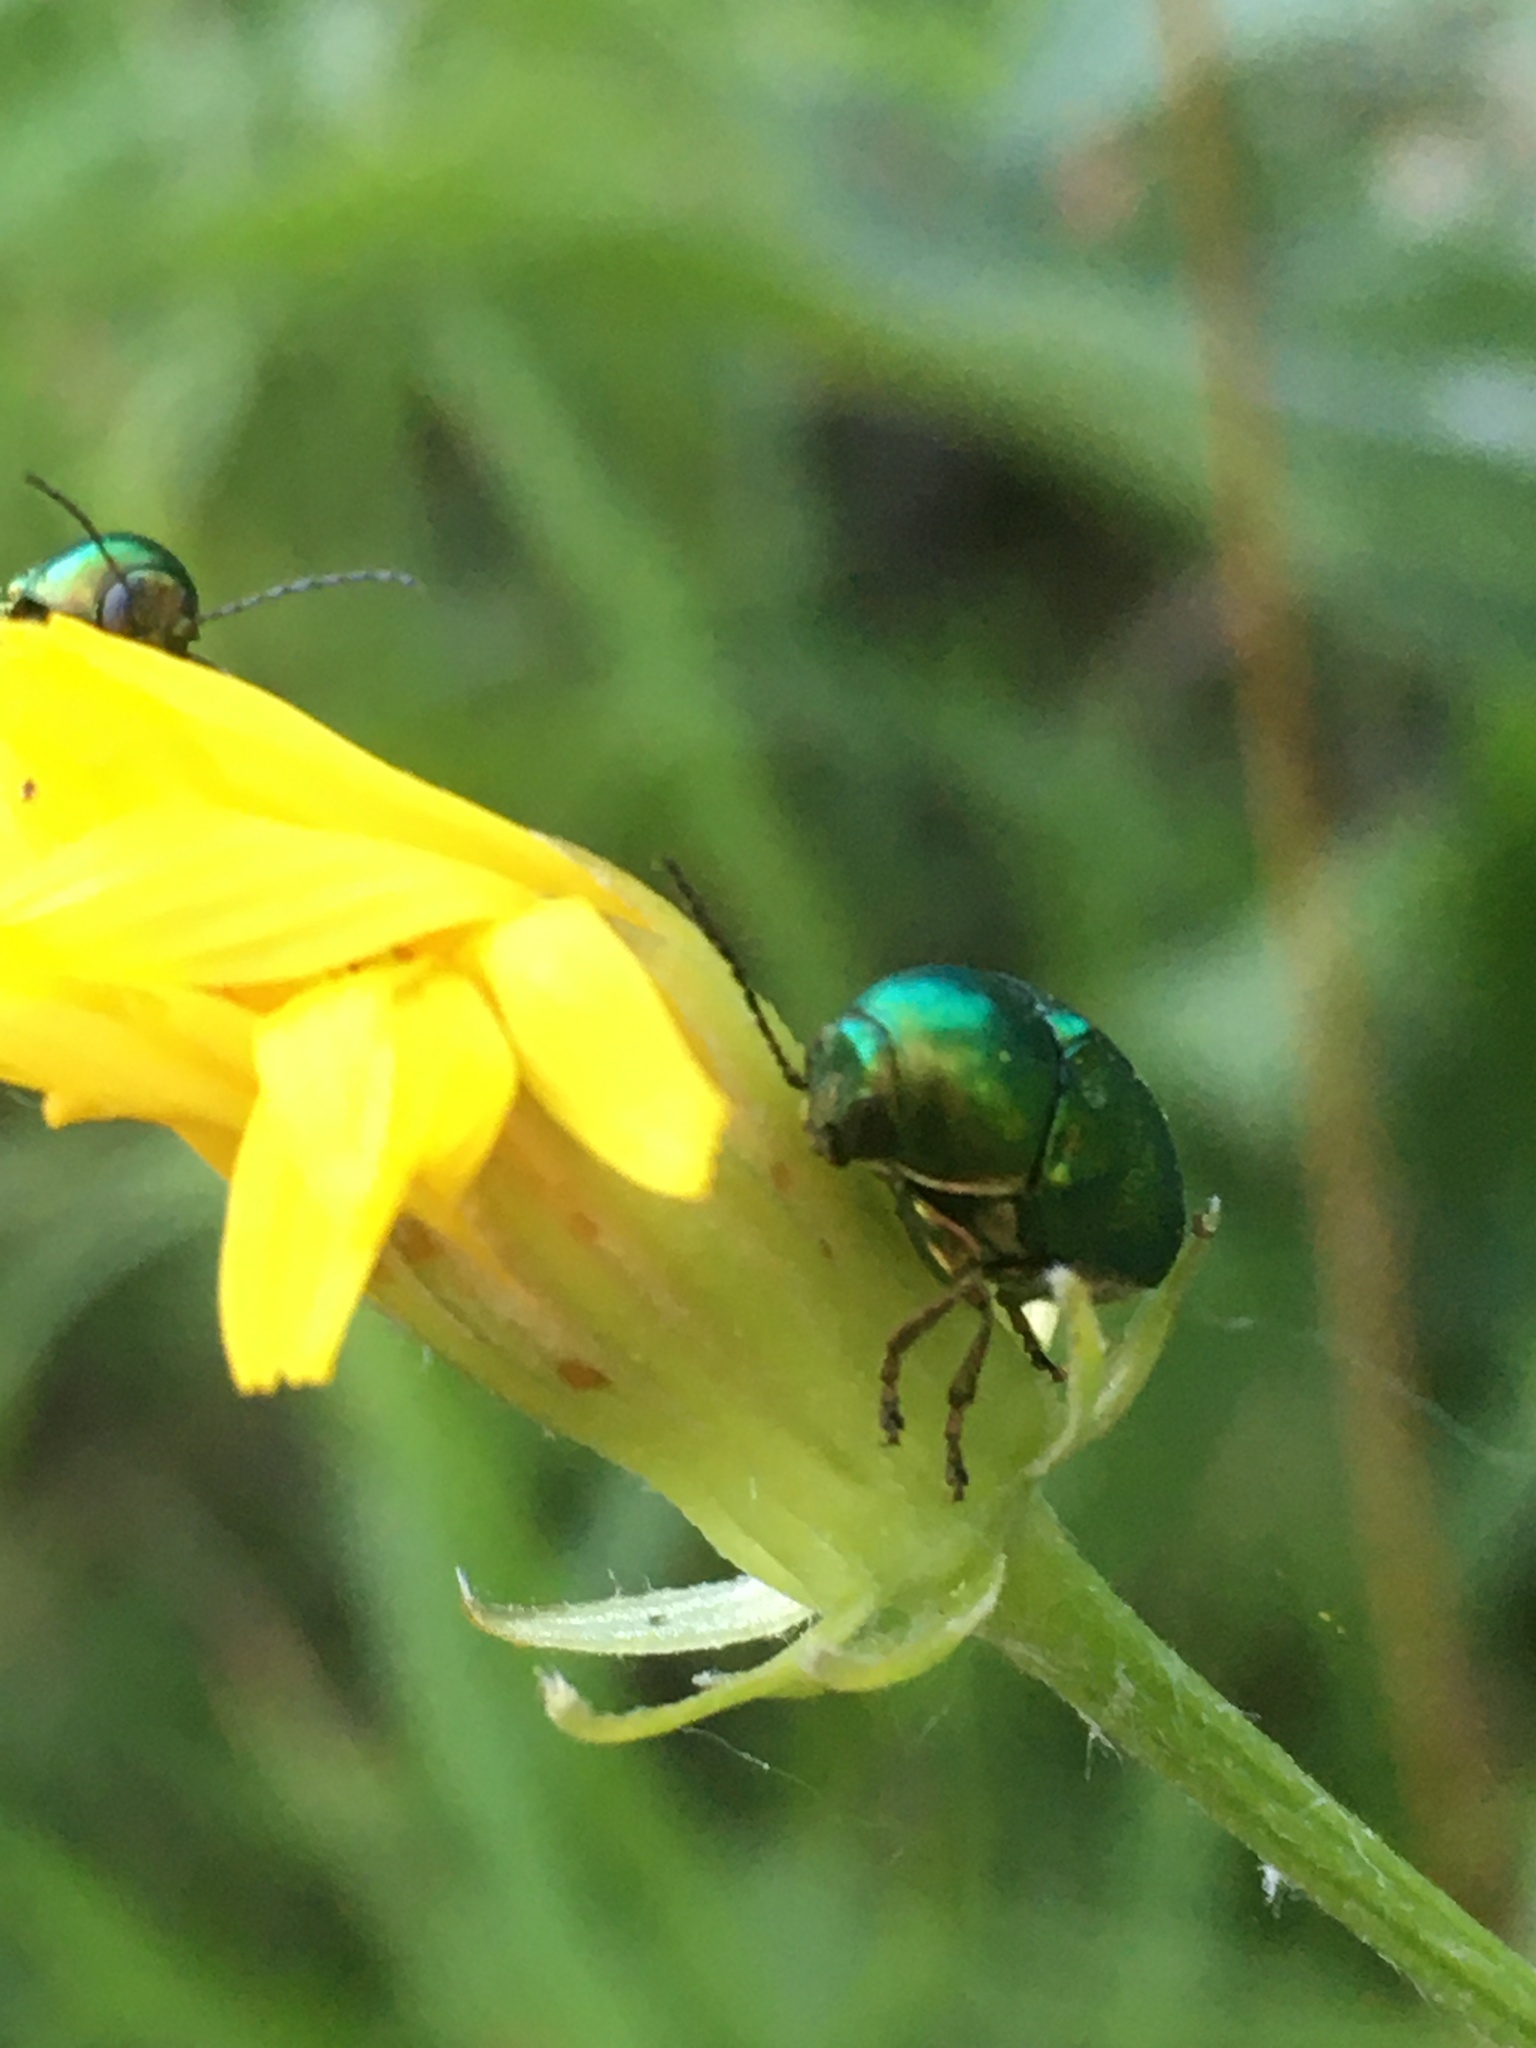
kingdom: Animalia
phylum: Arthropoda
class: Insecta
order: Coleoptera
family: Chrysomelidae
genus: Cryptocephalus
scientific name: Cryptocephalus
